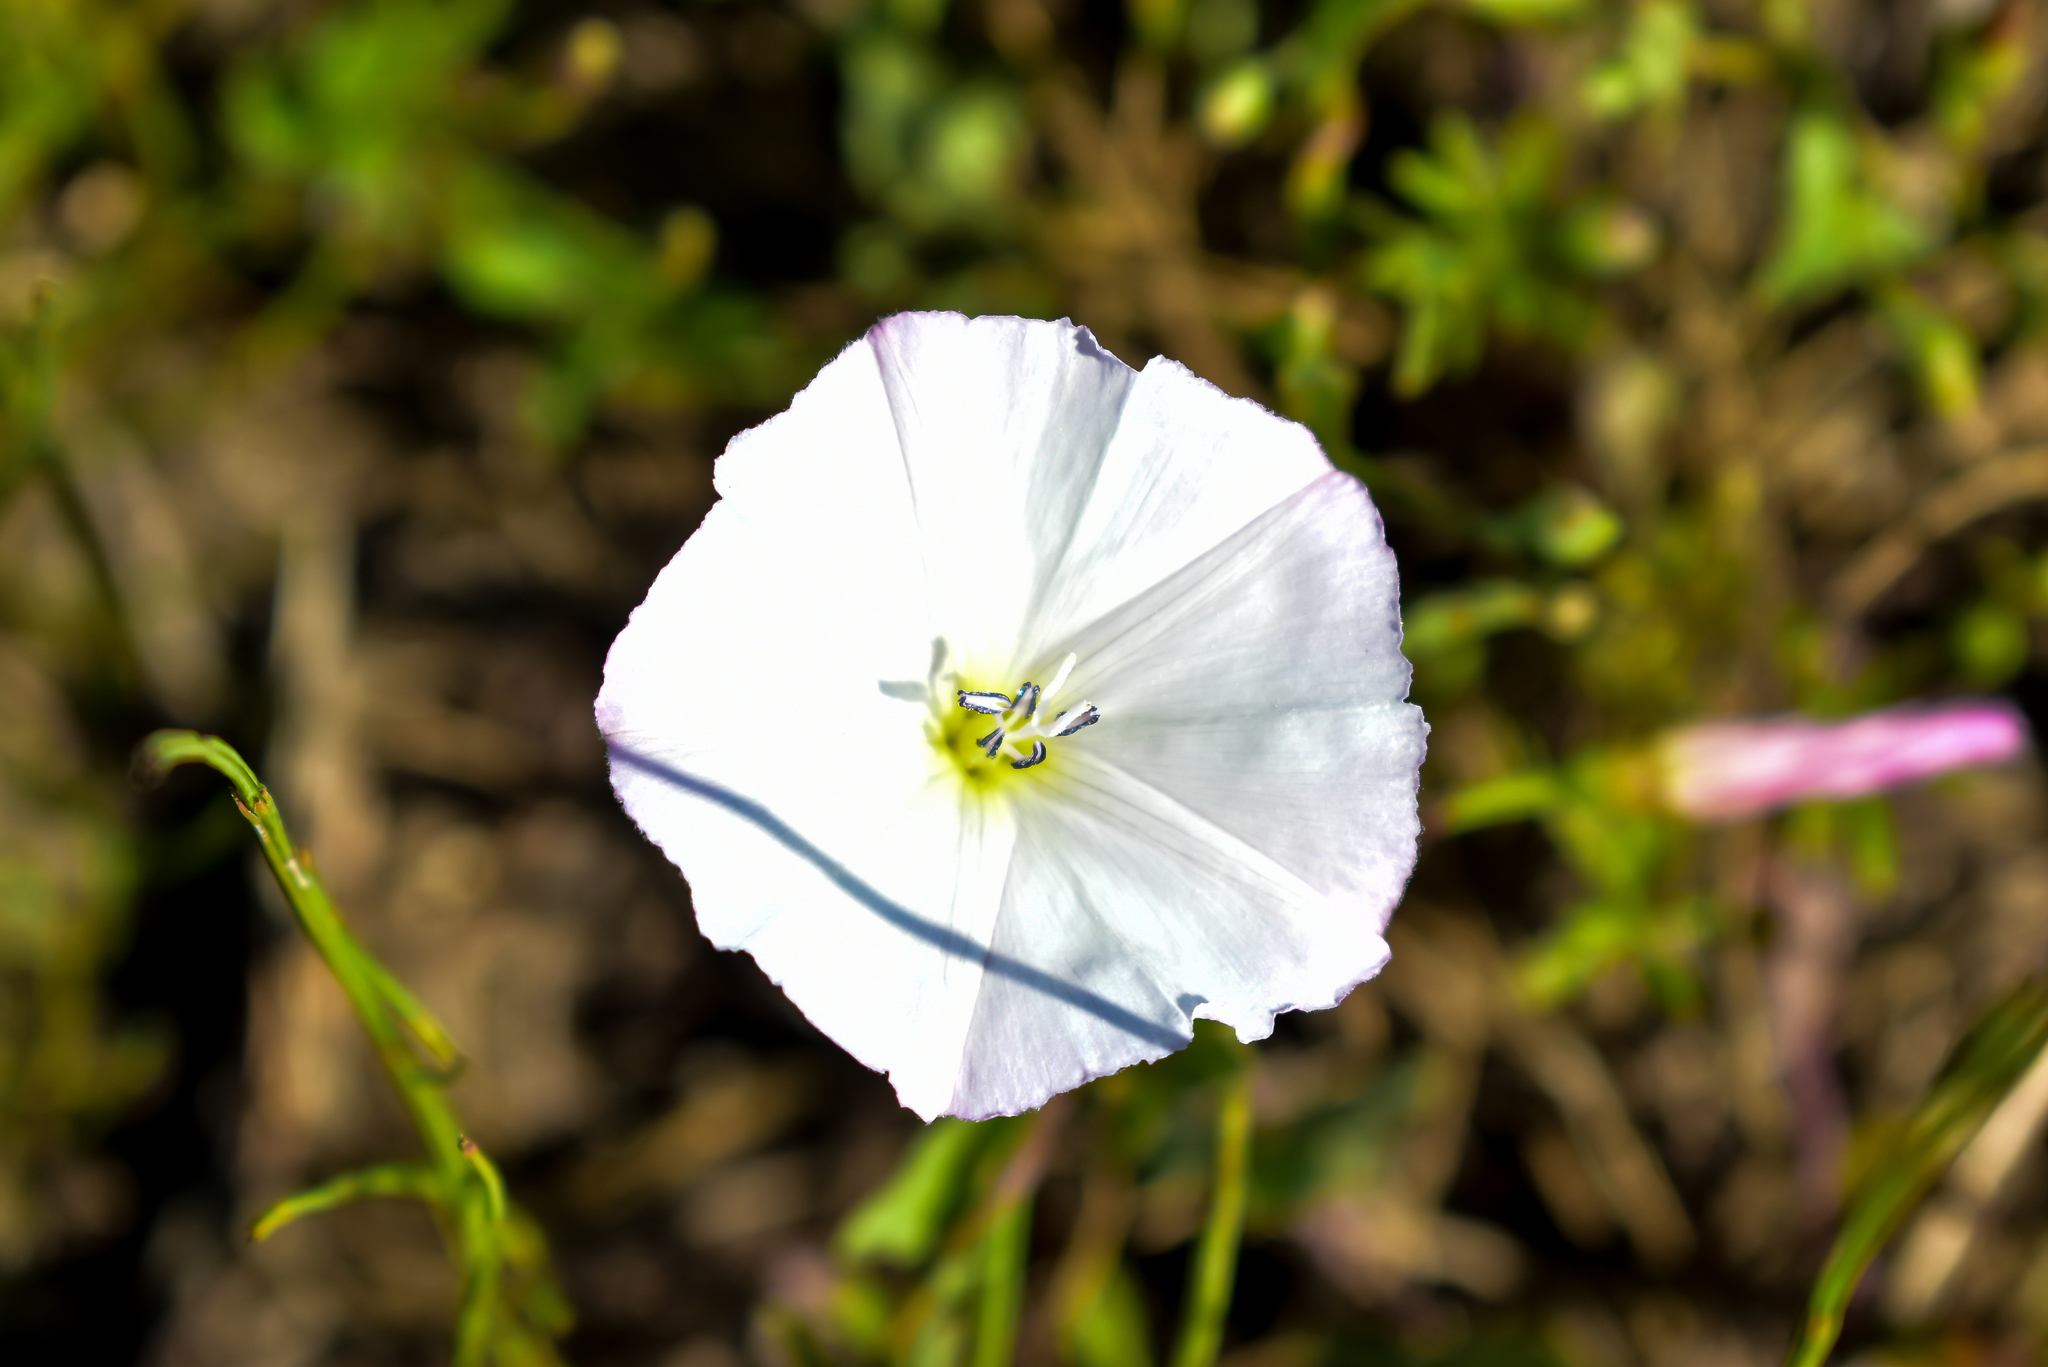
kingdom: Plantae
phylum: Tracheophyta
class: Magnoliopsida
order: Solanales
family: Convolvulaceae
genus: Convolvulus
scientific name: Convolvulus arvensis
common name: Field bindweed
